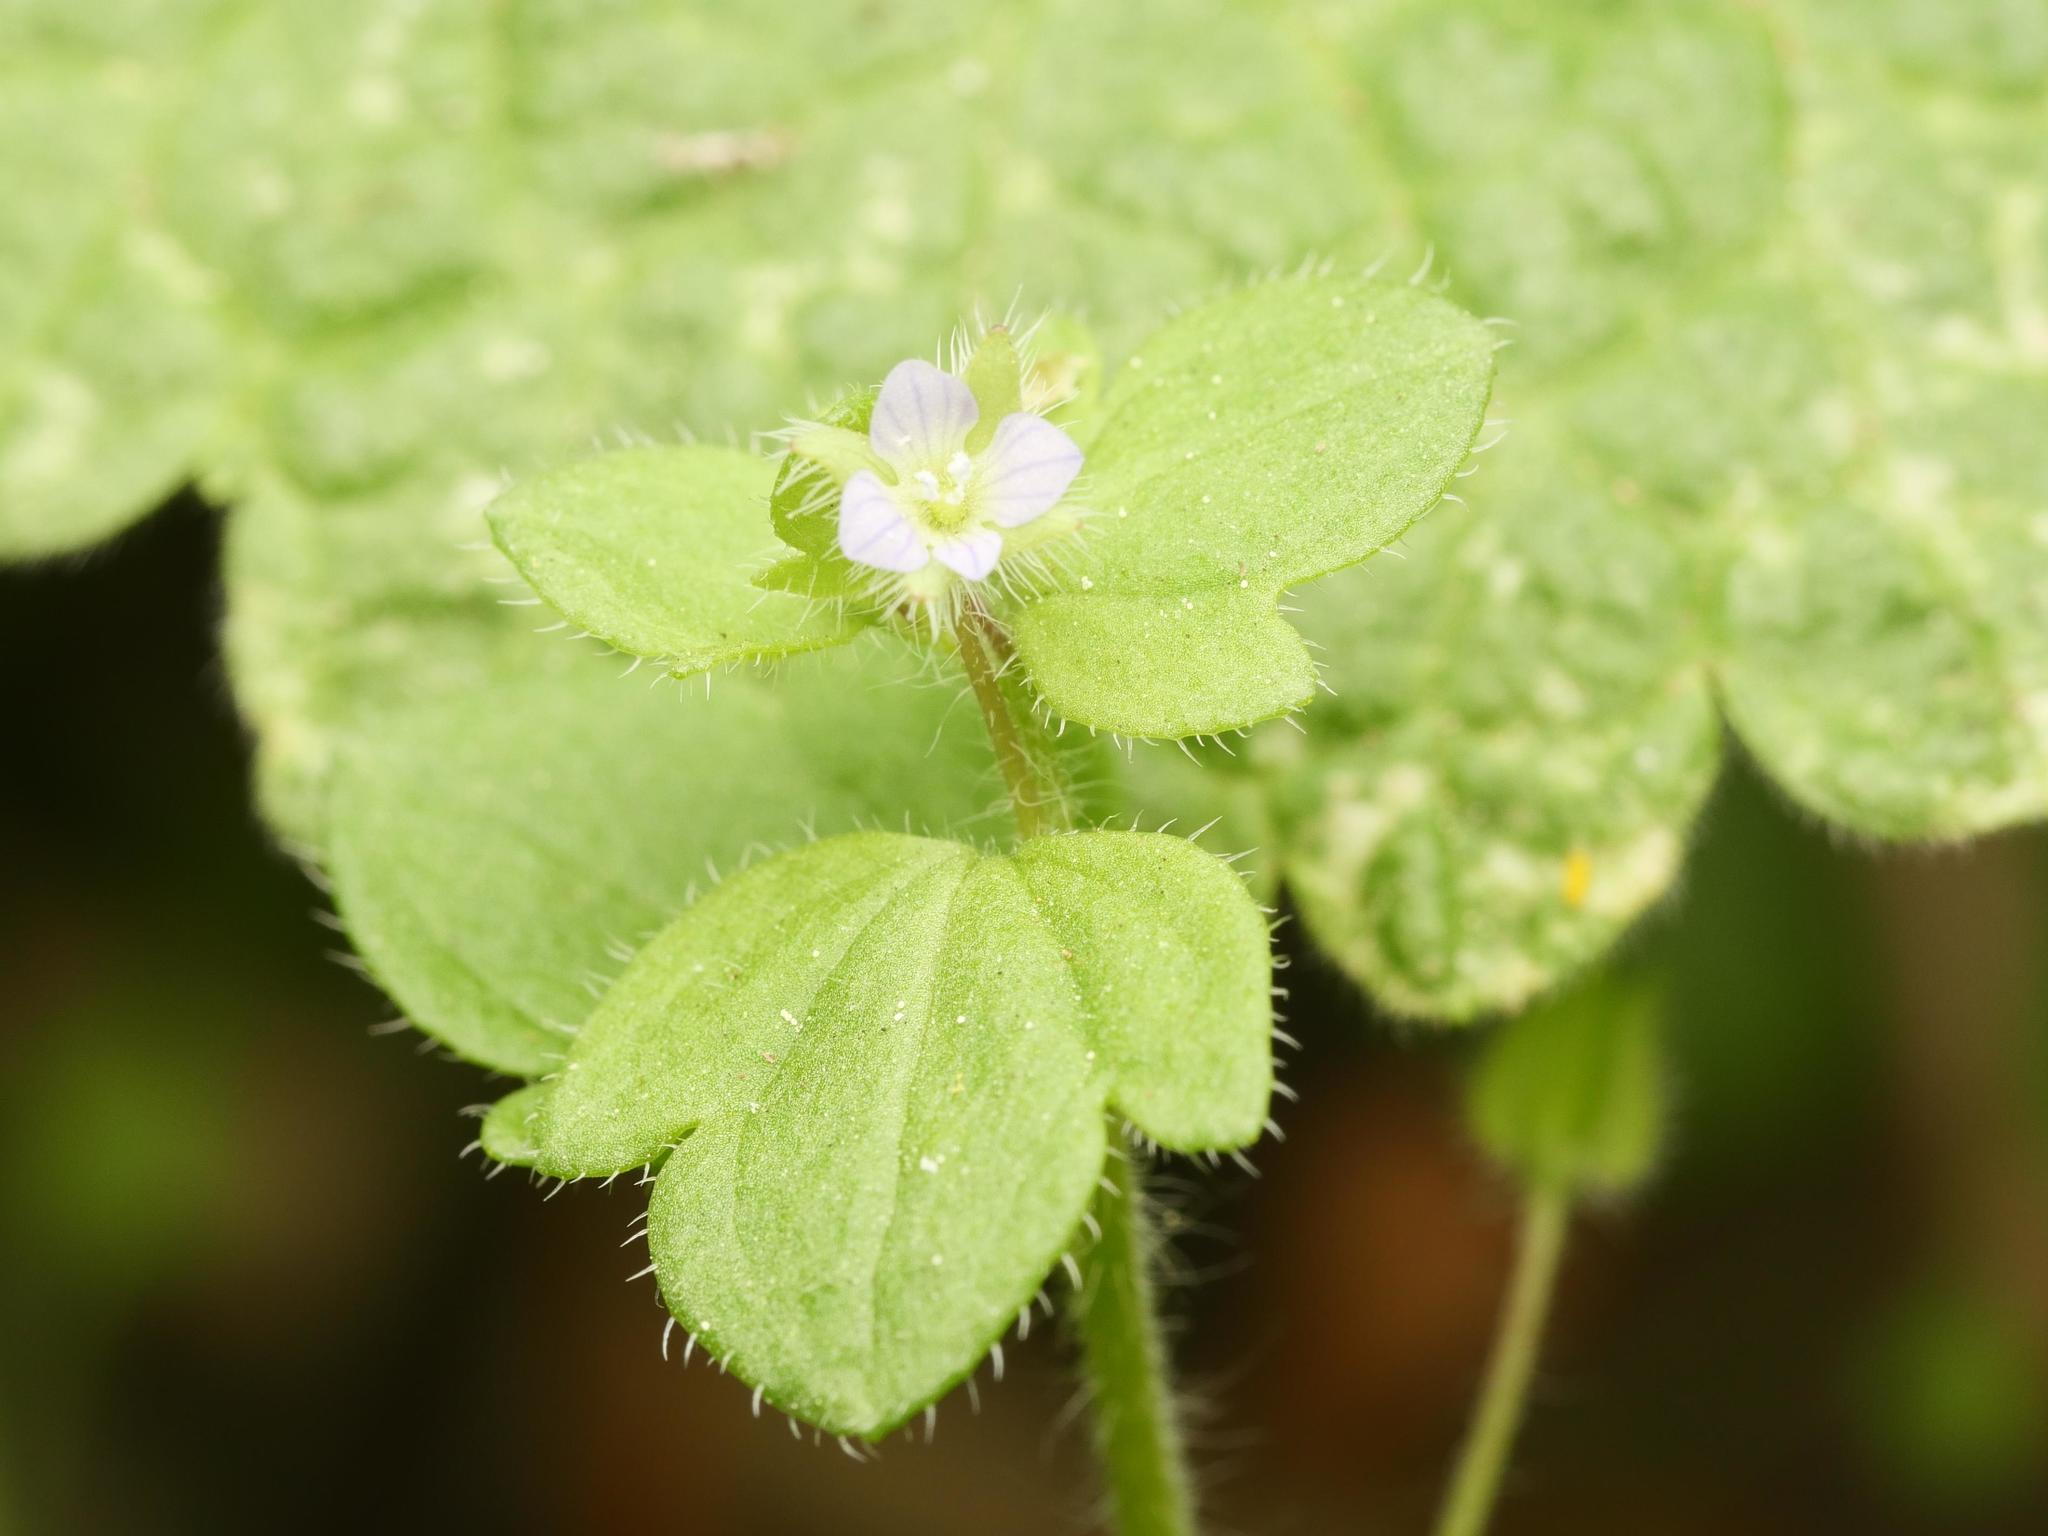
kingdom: Plantae
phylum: Tracheophyta
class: Magnoliopsida
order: Lamiales
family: Plantaginaceae
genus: Veronica
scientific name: Veronica sublobata
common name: False ivy-leaved speedwell
